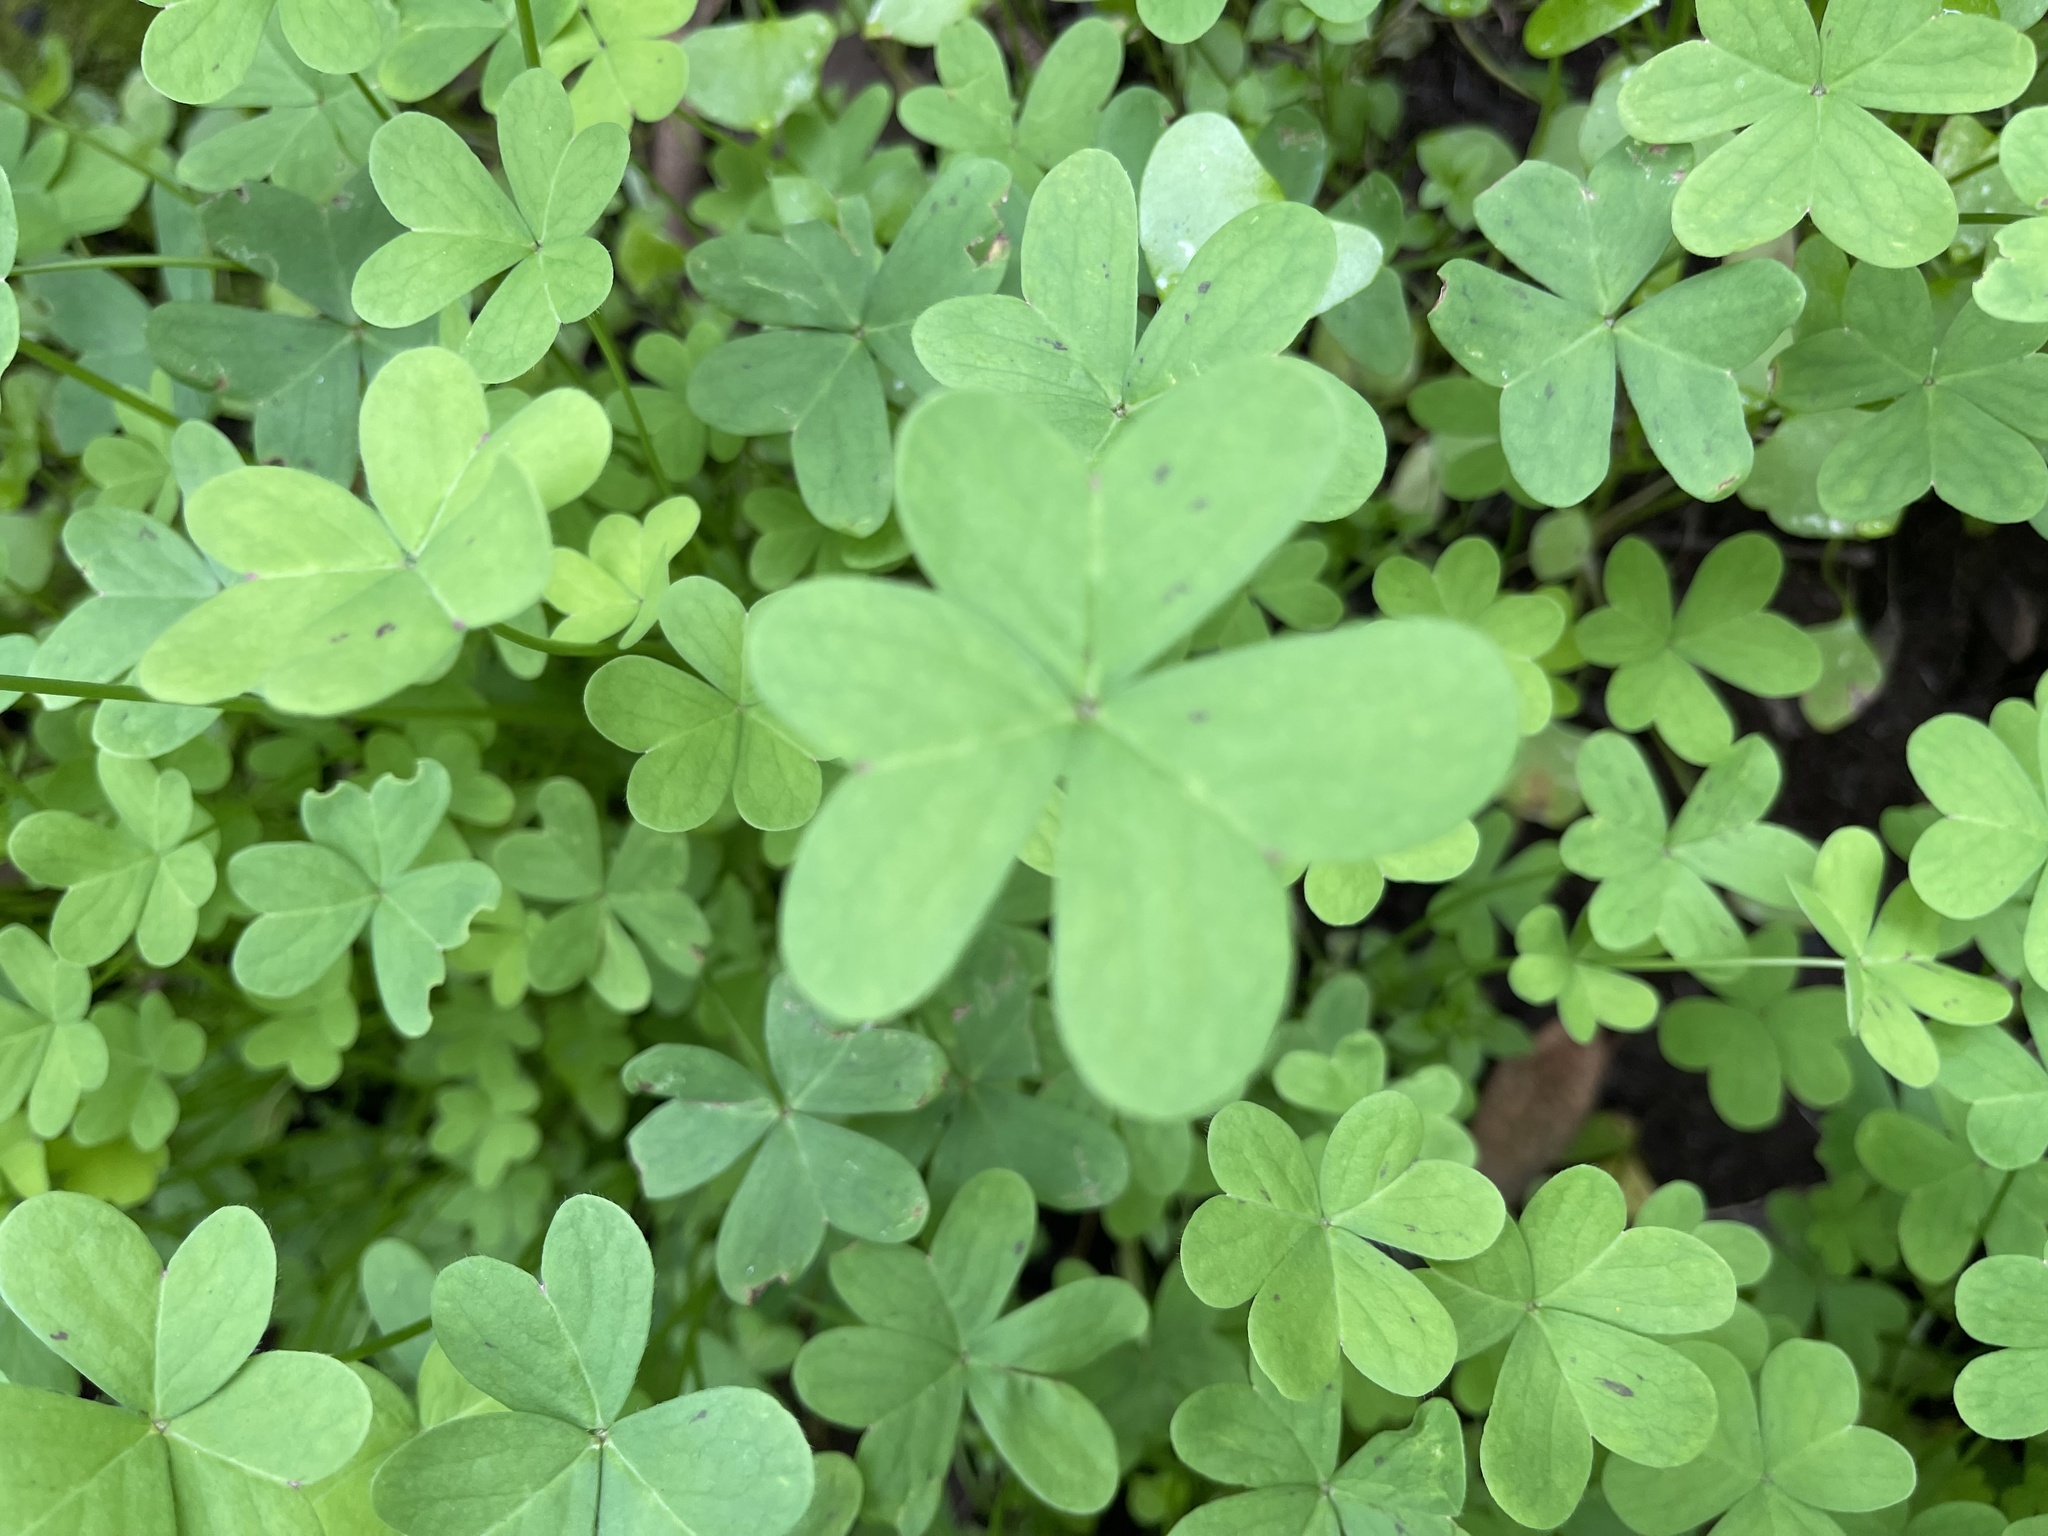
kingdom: Plantae
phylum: Tracheophyta
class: Magnoliopsida
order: Oxalidales
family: Oxalidaceae
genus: Oxalis
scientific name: Oxalis pes-caprae
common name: Bermuda-buttercup
